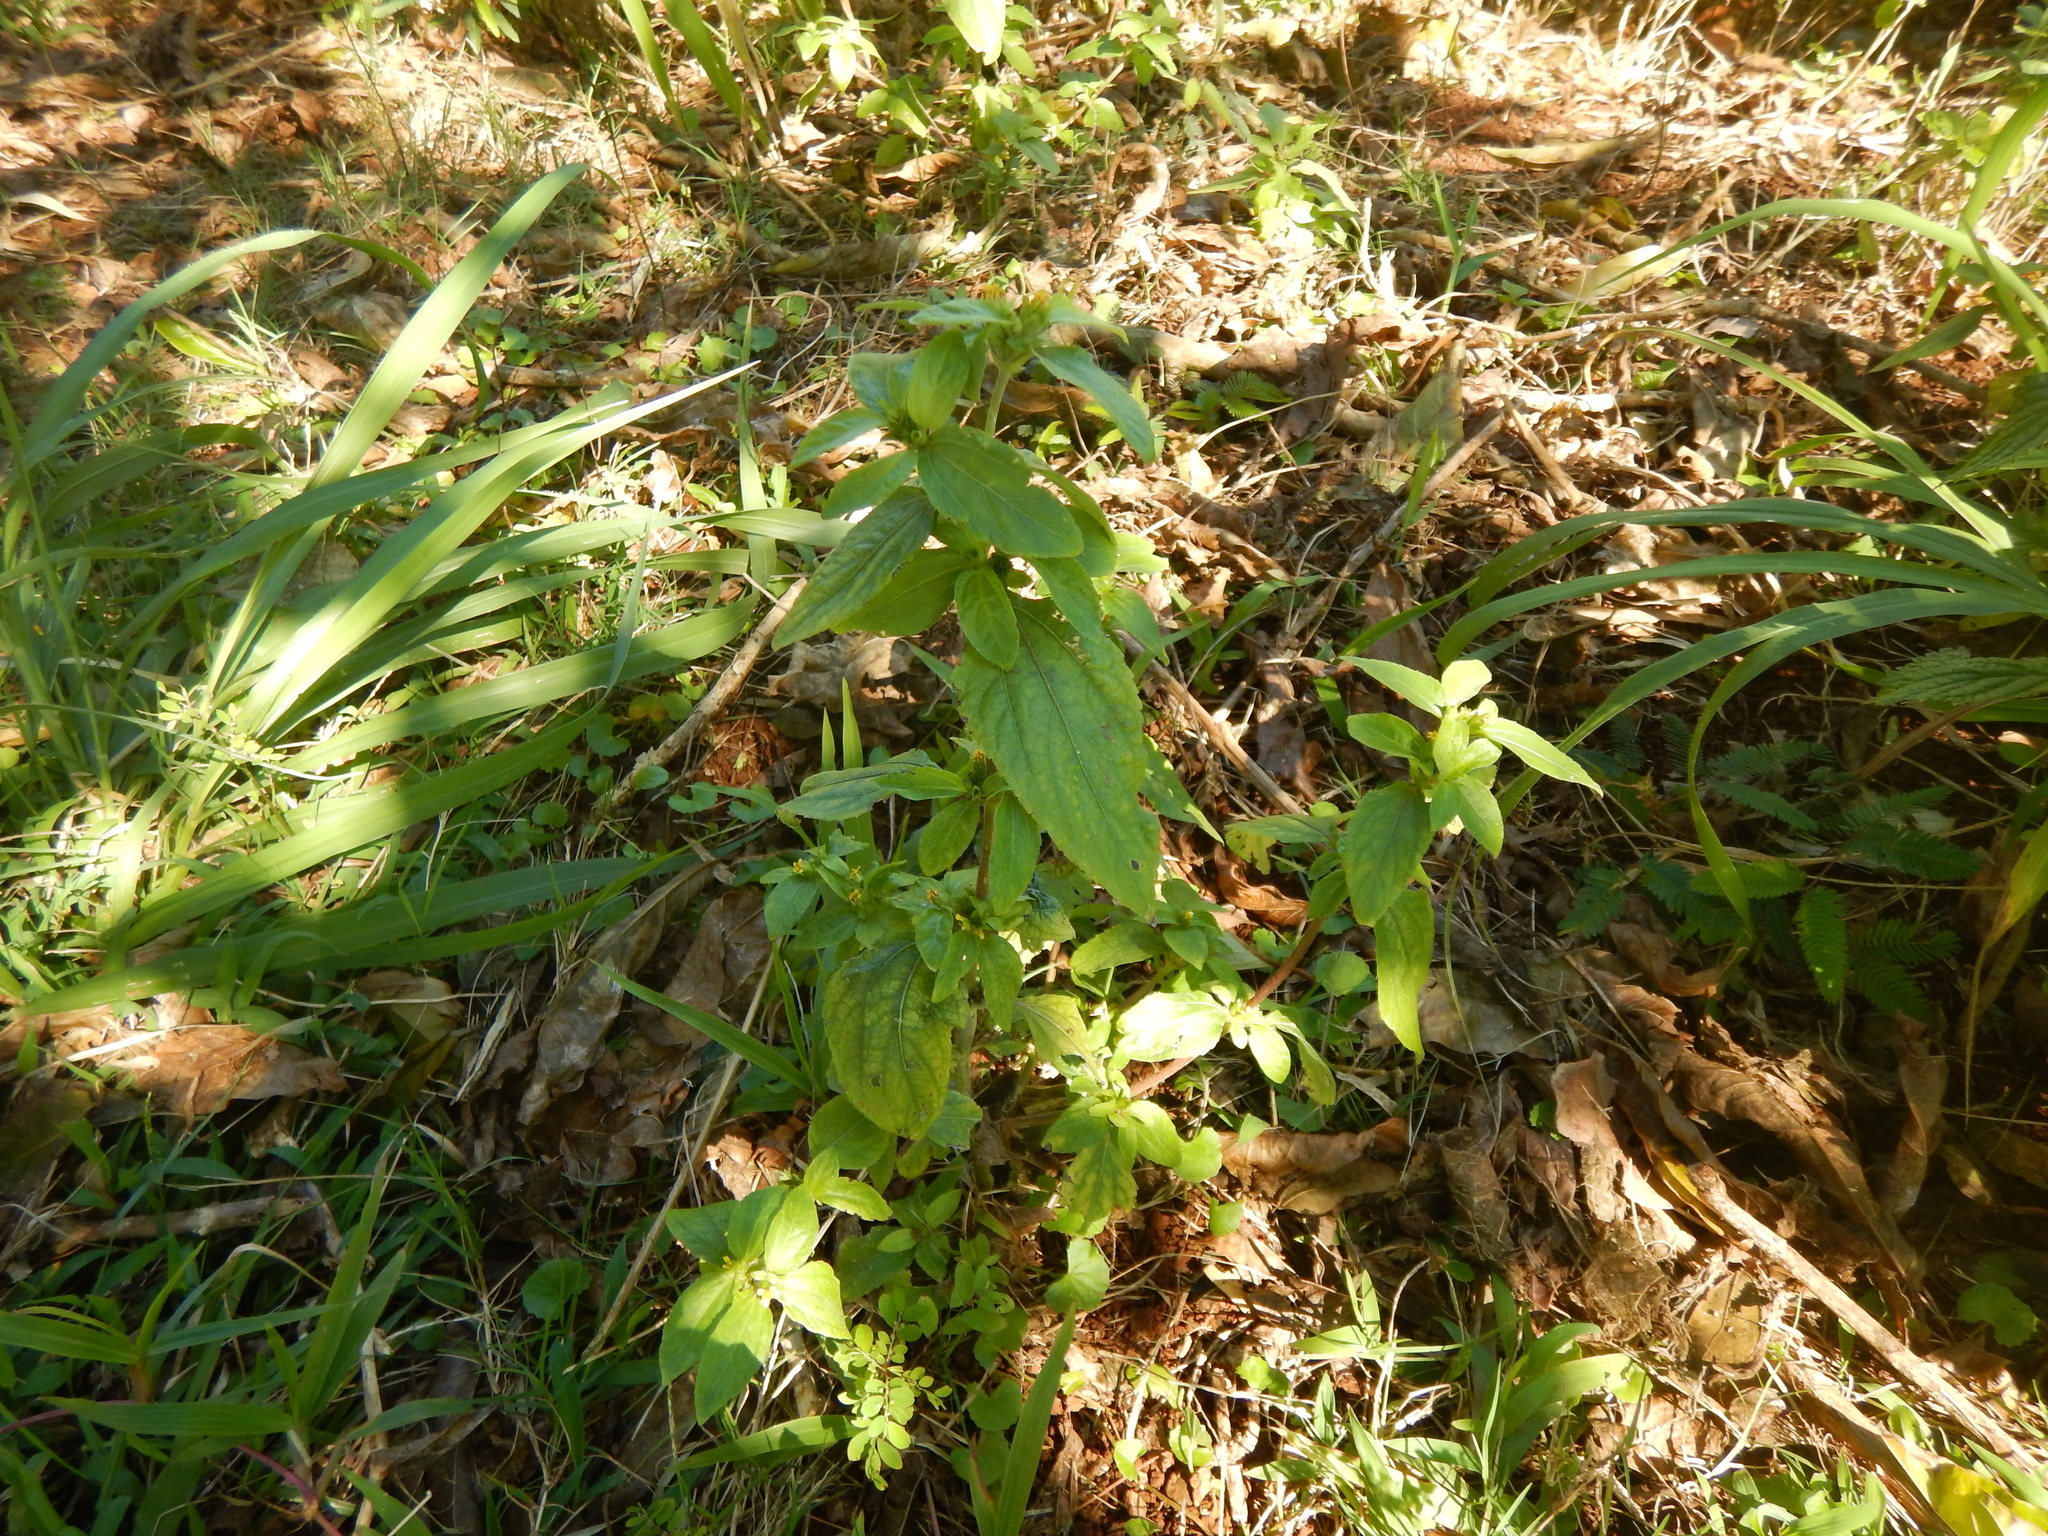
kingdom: Plantae
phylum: Tracheophyta
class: Magnoliopsida
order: Asterales
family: Asteraceae
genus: Synedrella
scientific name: Synedrella nodiflora
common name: Nodeweed
